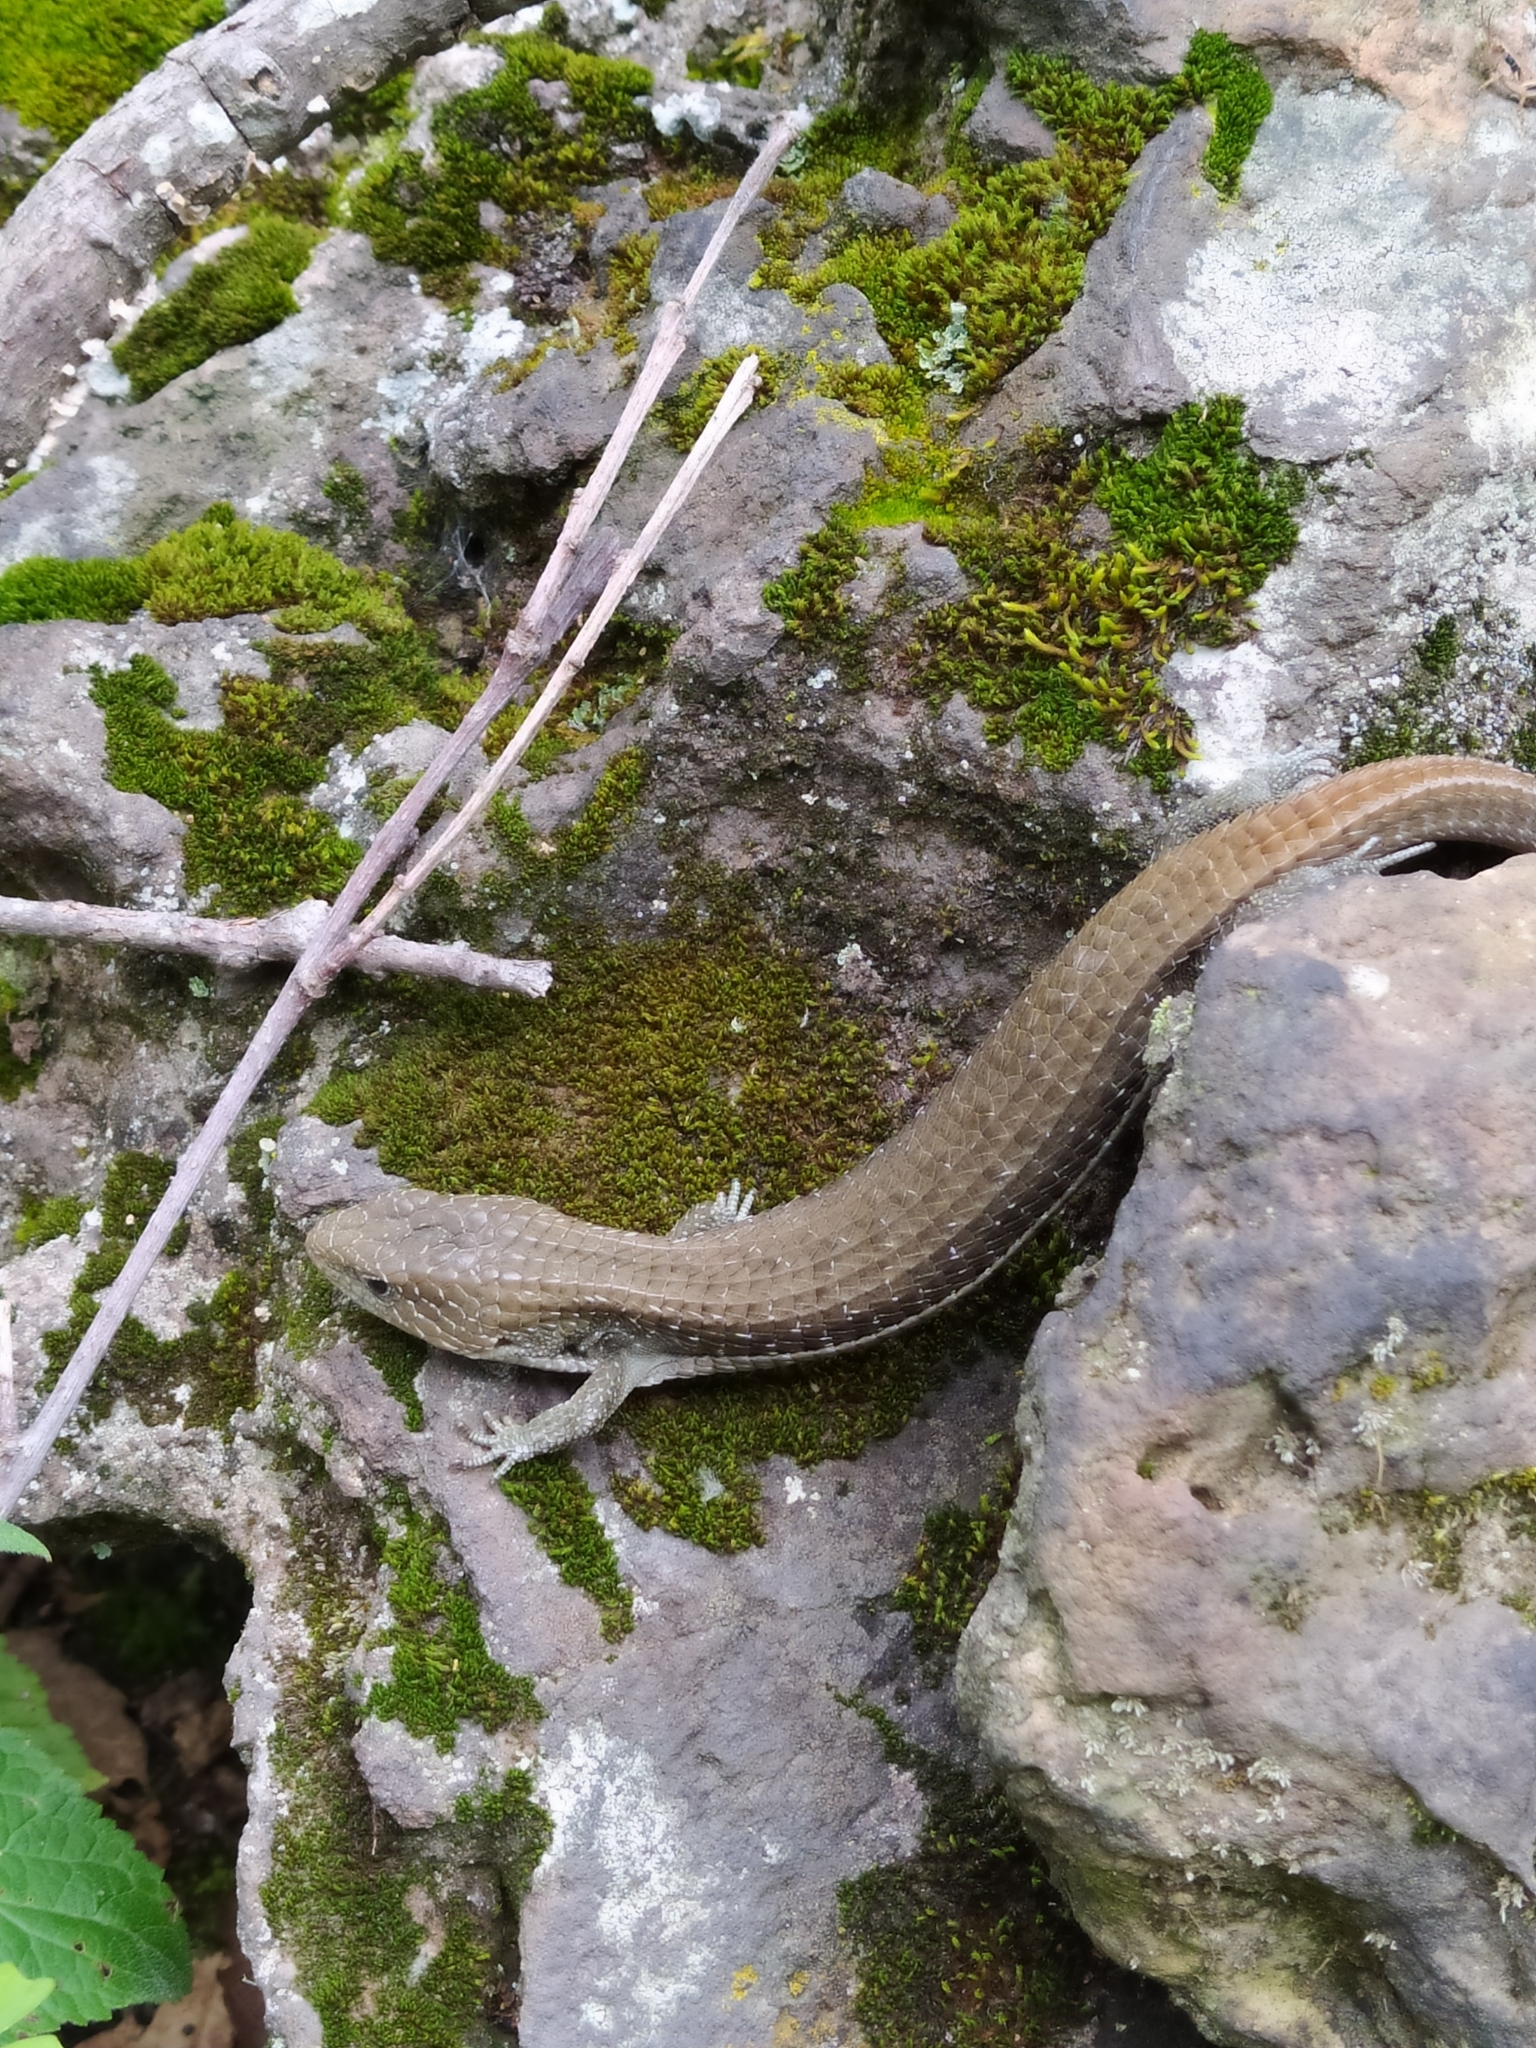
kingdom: Animalia
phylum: Chordata
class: Squamata
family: Anguidae
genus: Barisia
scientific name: Barisia imbricata
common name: Imbricate alligator lizard
